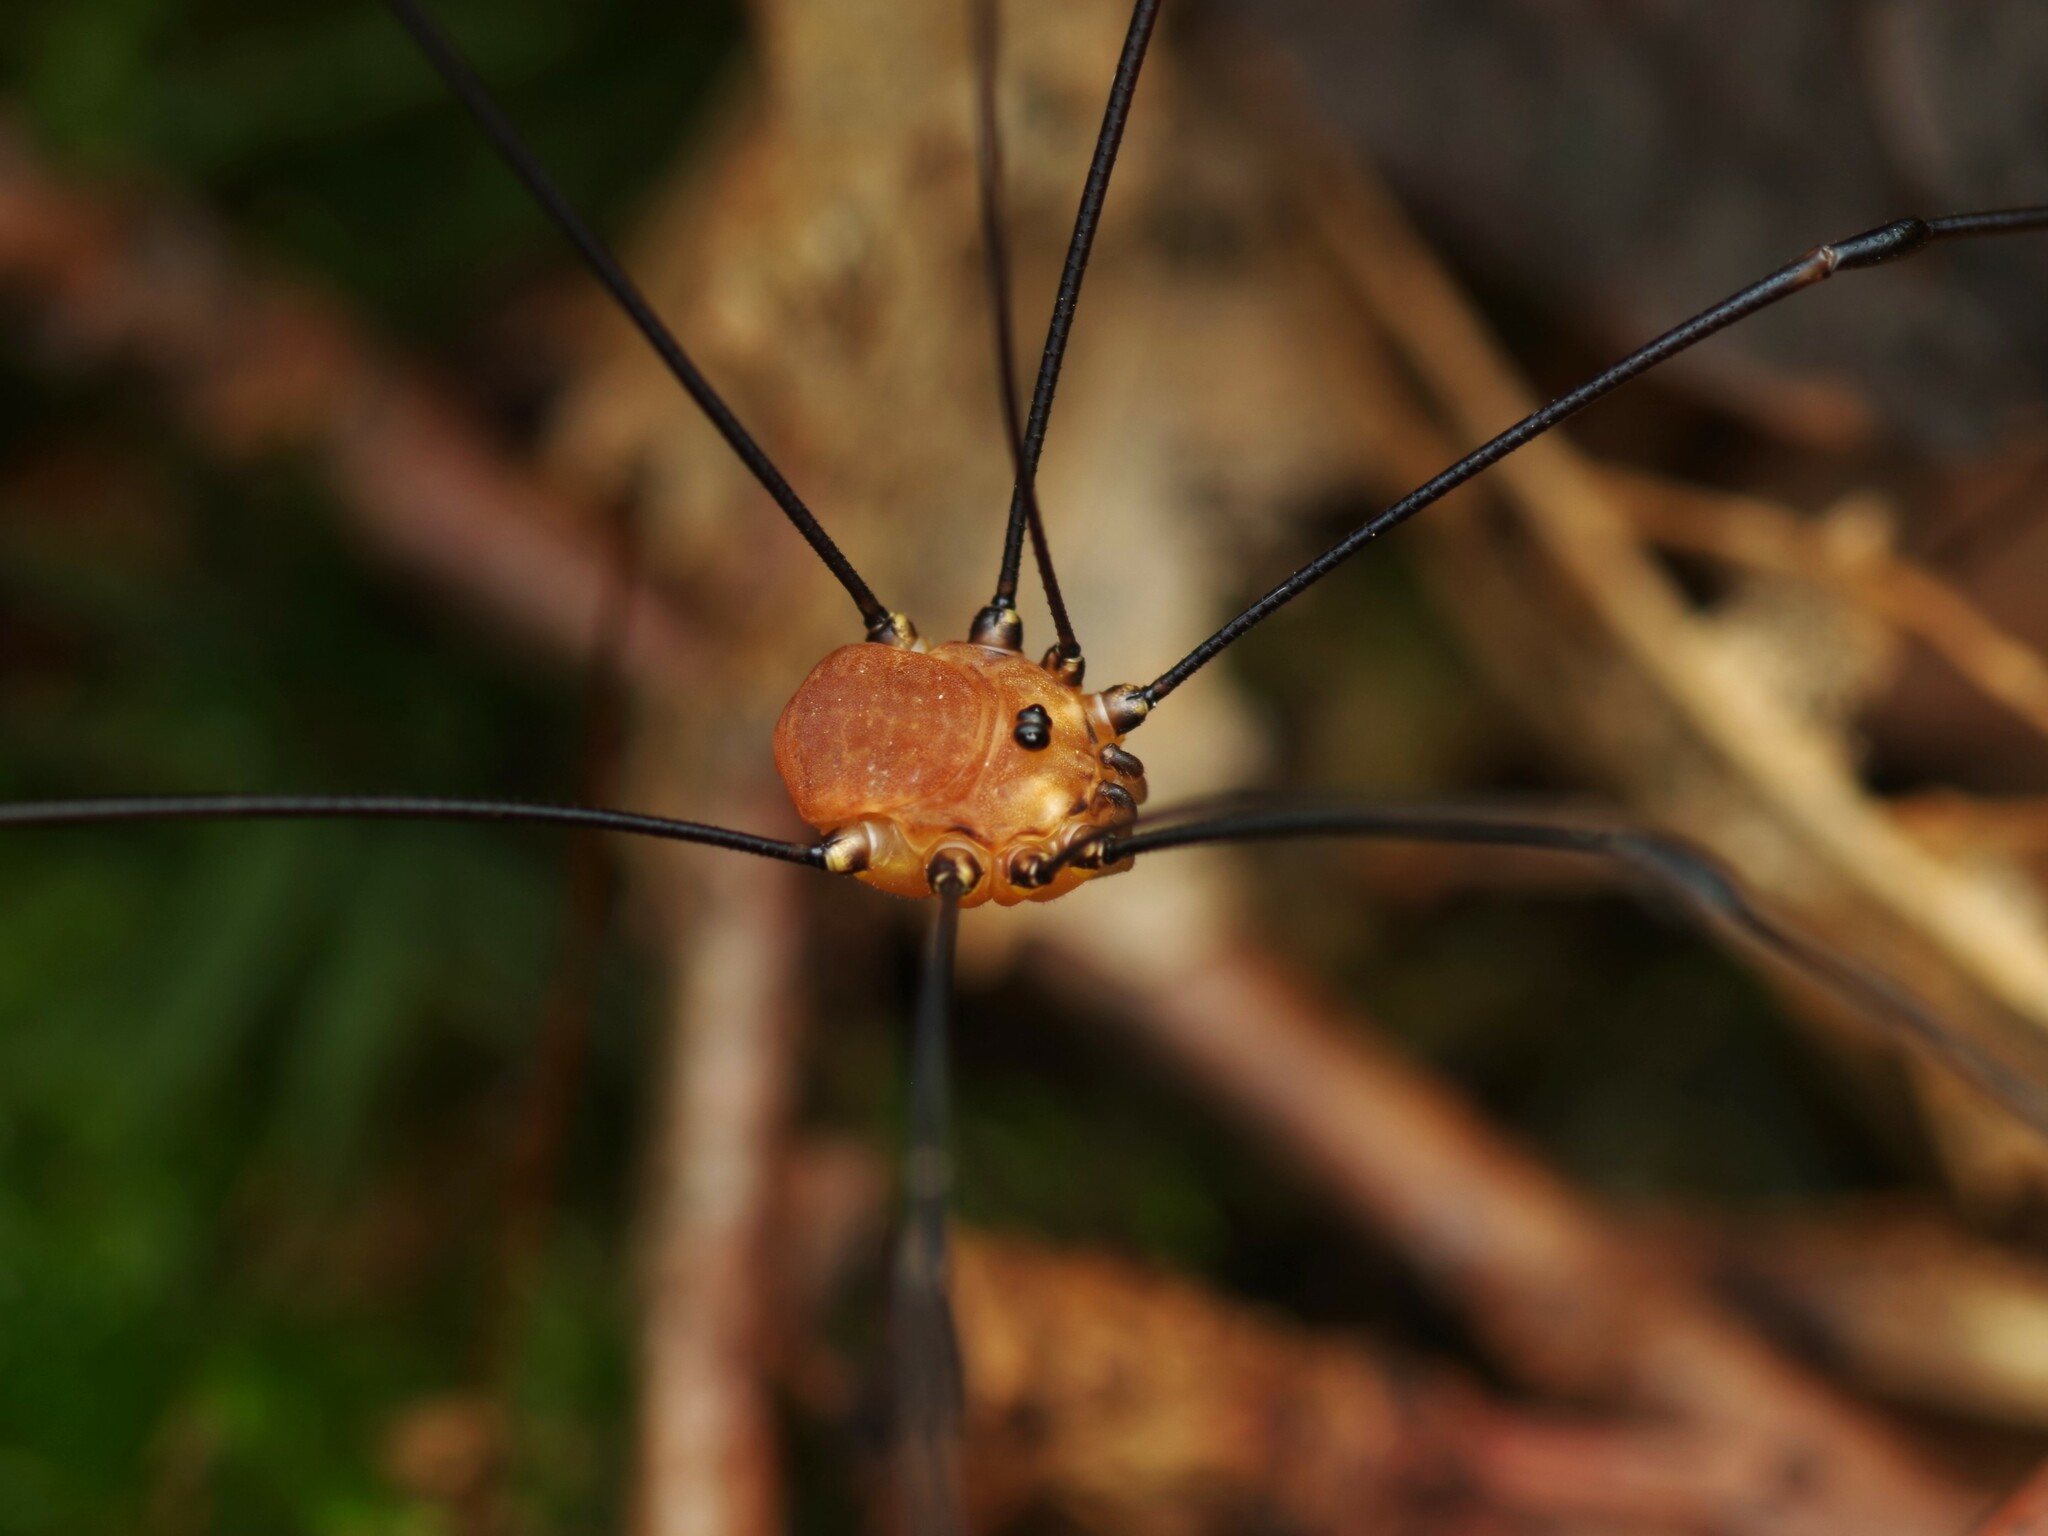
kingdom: Animalia
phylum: Arthropoda
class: Arachnida
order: Opiliones
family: Sclerosomatidae
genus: Leiobunum
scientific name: Leiobunum rotundum
